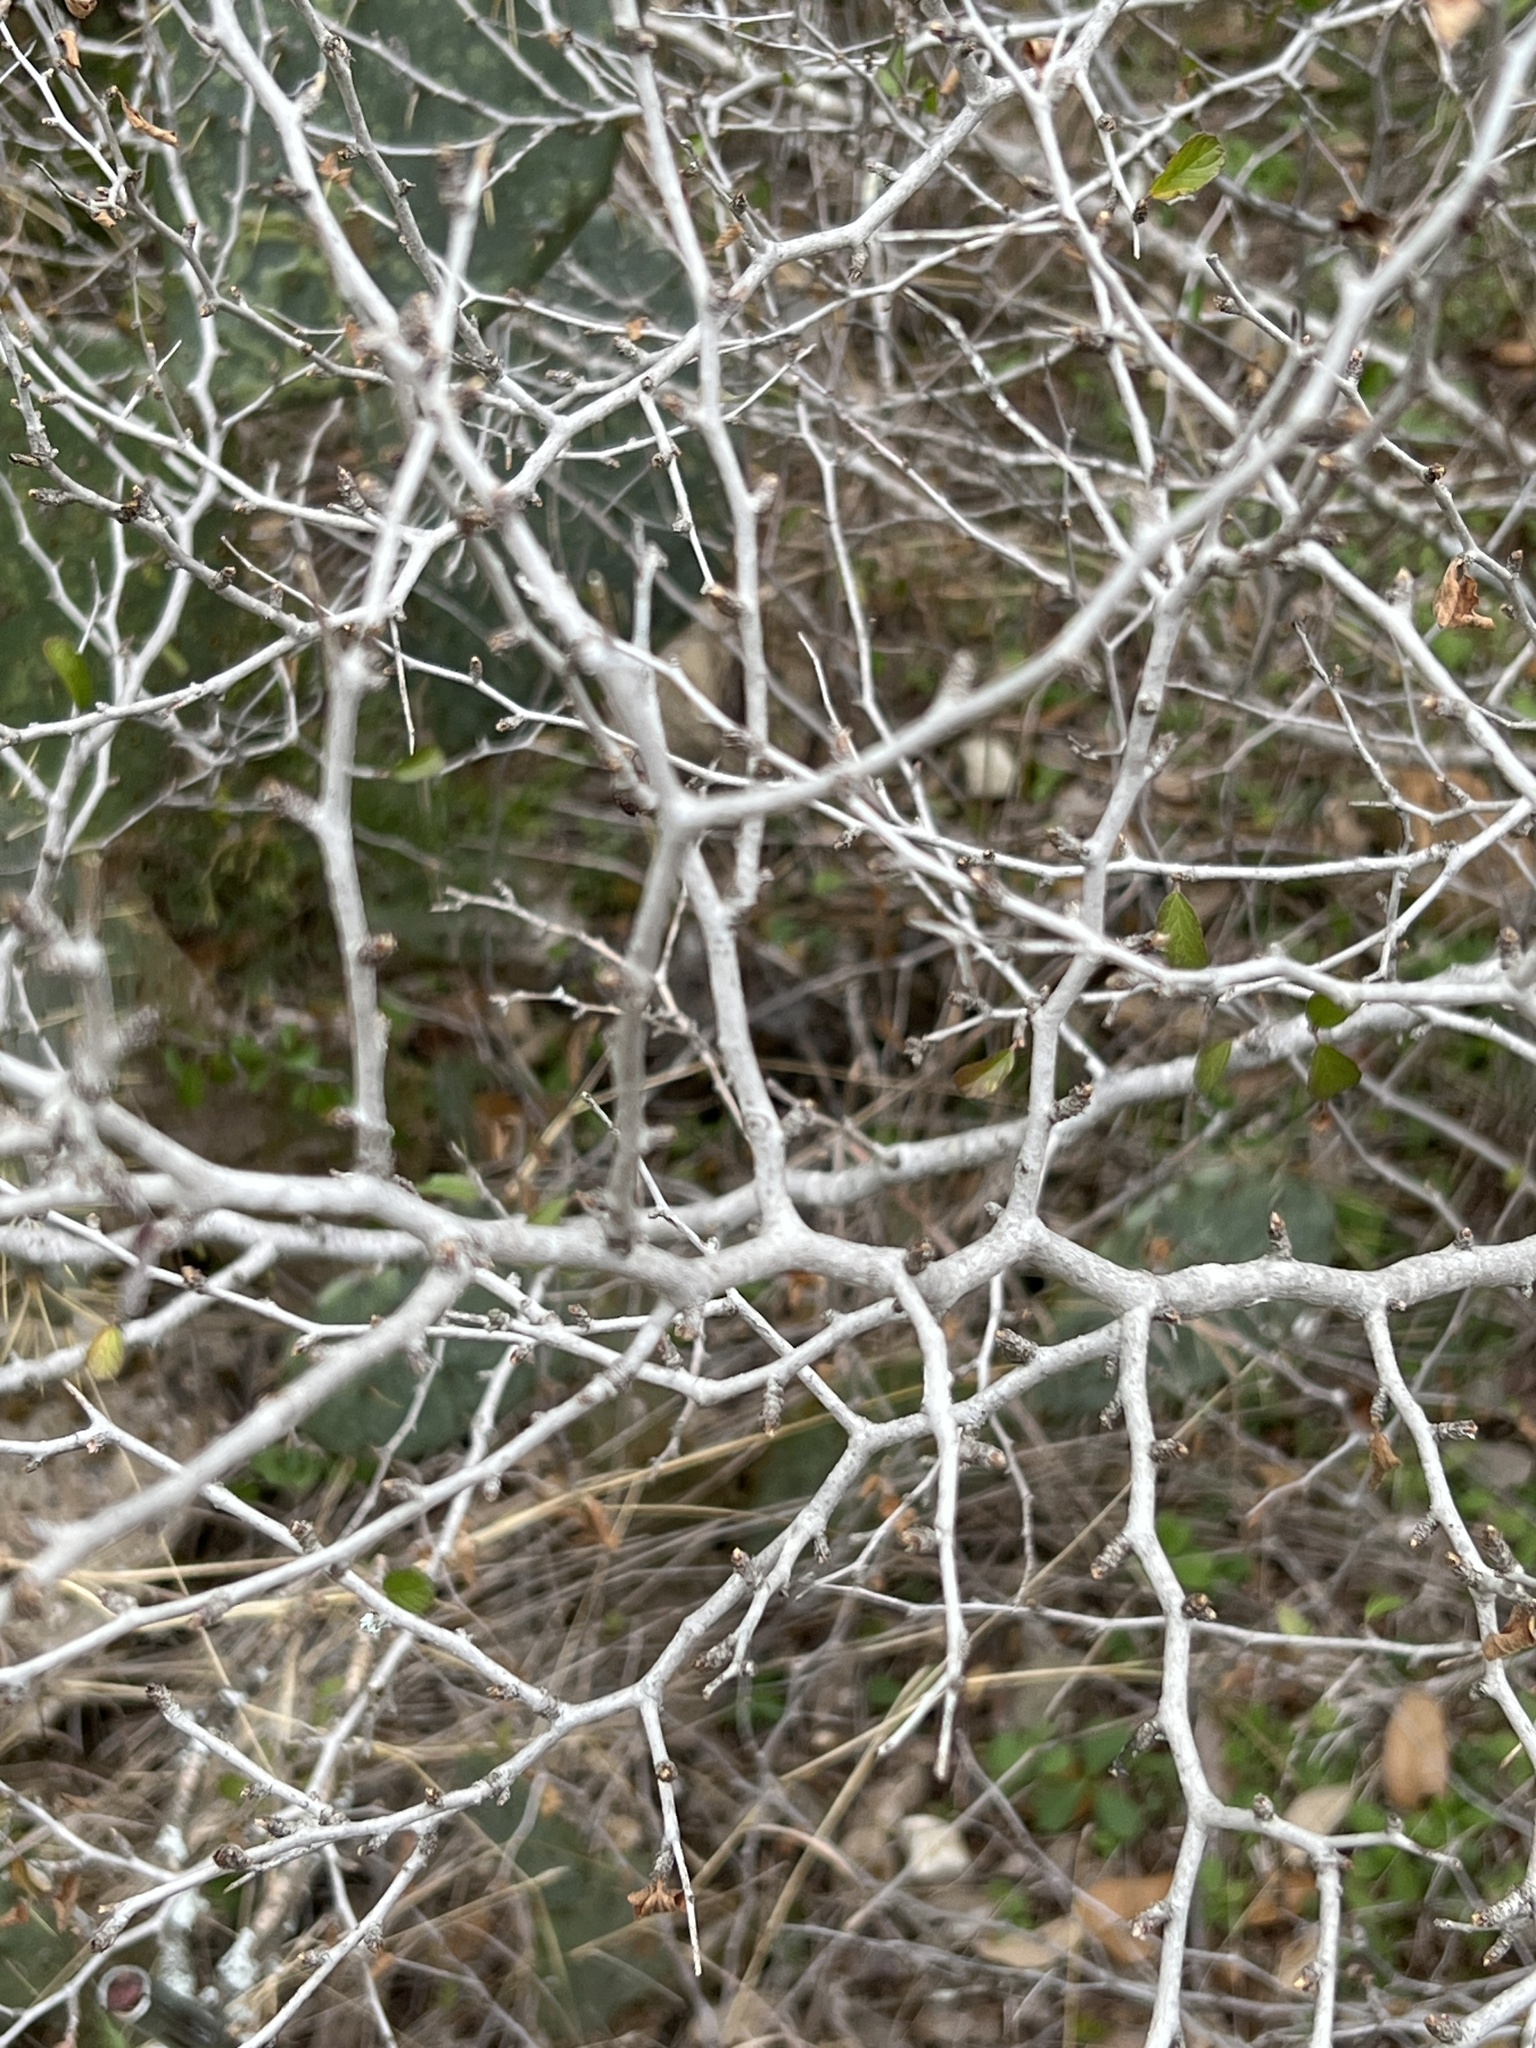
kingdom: Plantae
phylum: Tracheophyta
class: Magnoliopsida
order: Rosales
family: Rhamnaceae
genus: Colubrina
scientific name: Colubrina texensis
